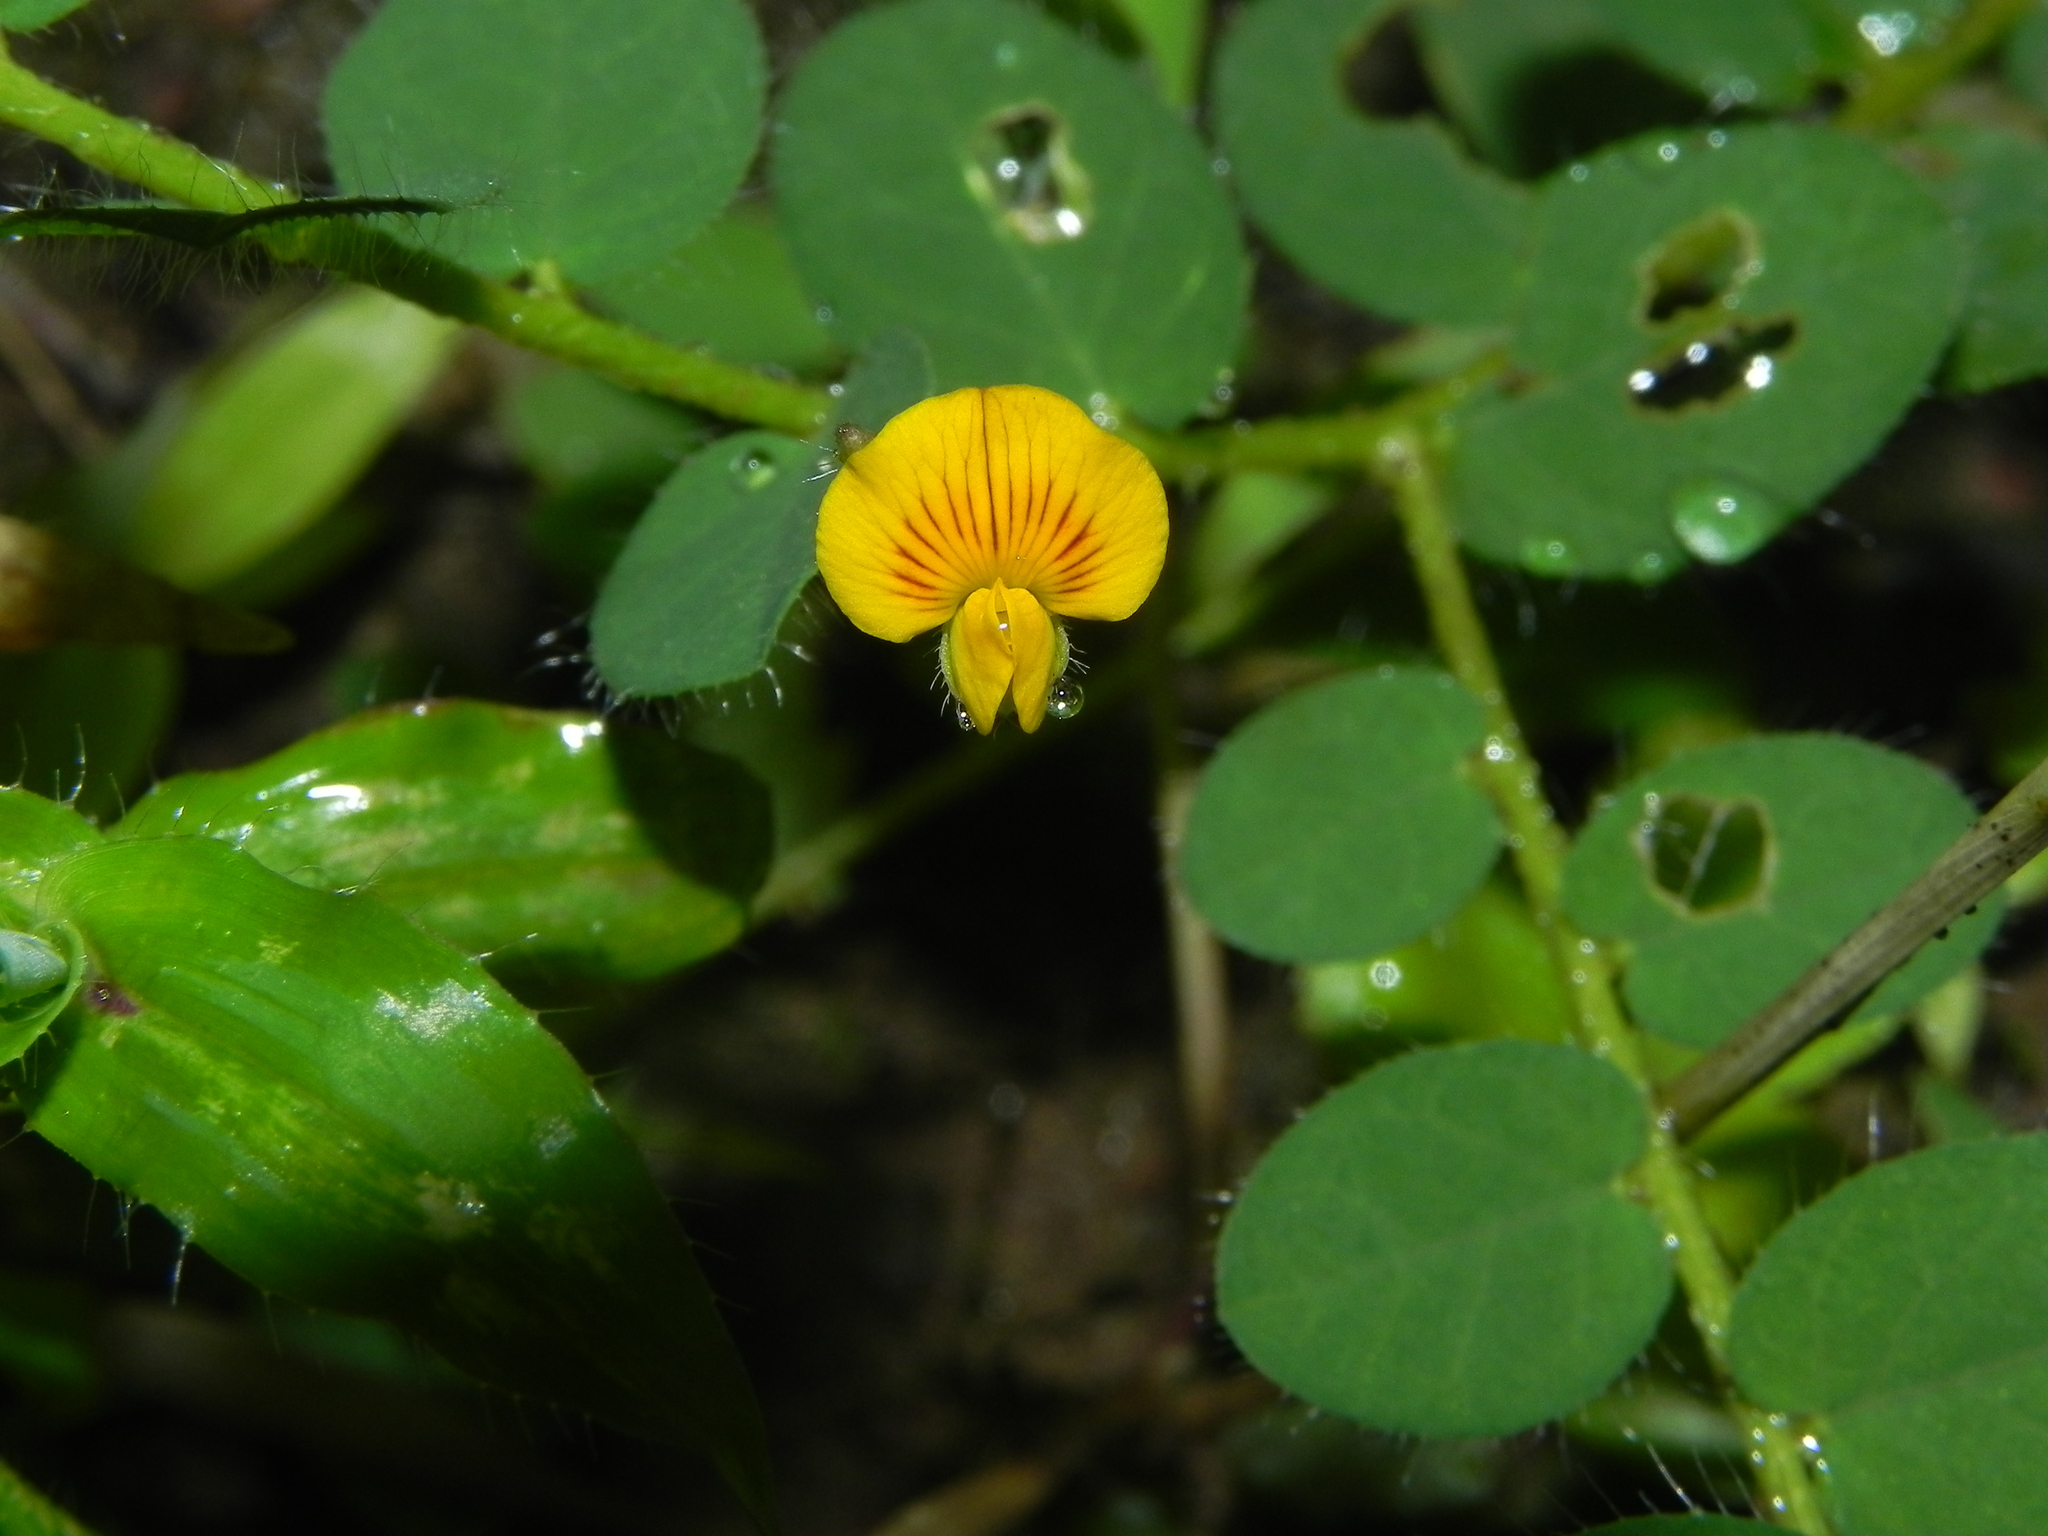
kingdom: Plantae
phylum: Tracheophyta
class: Magnoliopsida
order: Fabales
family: Fabaceae
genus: Crotalaria
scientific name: Crotalaria filipes
